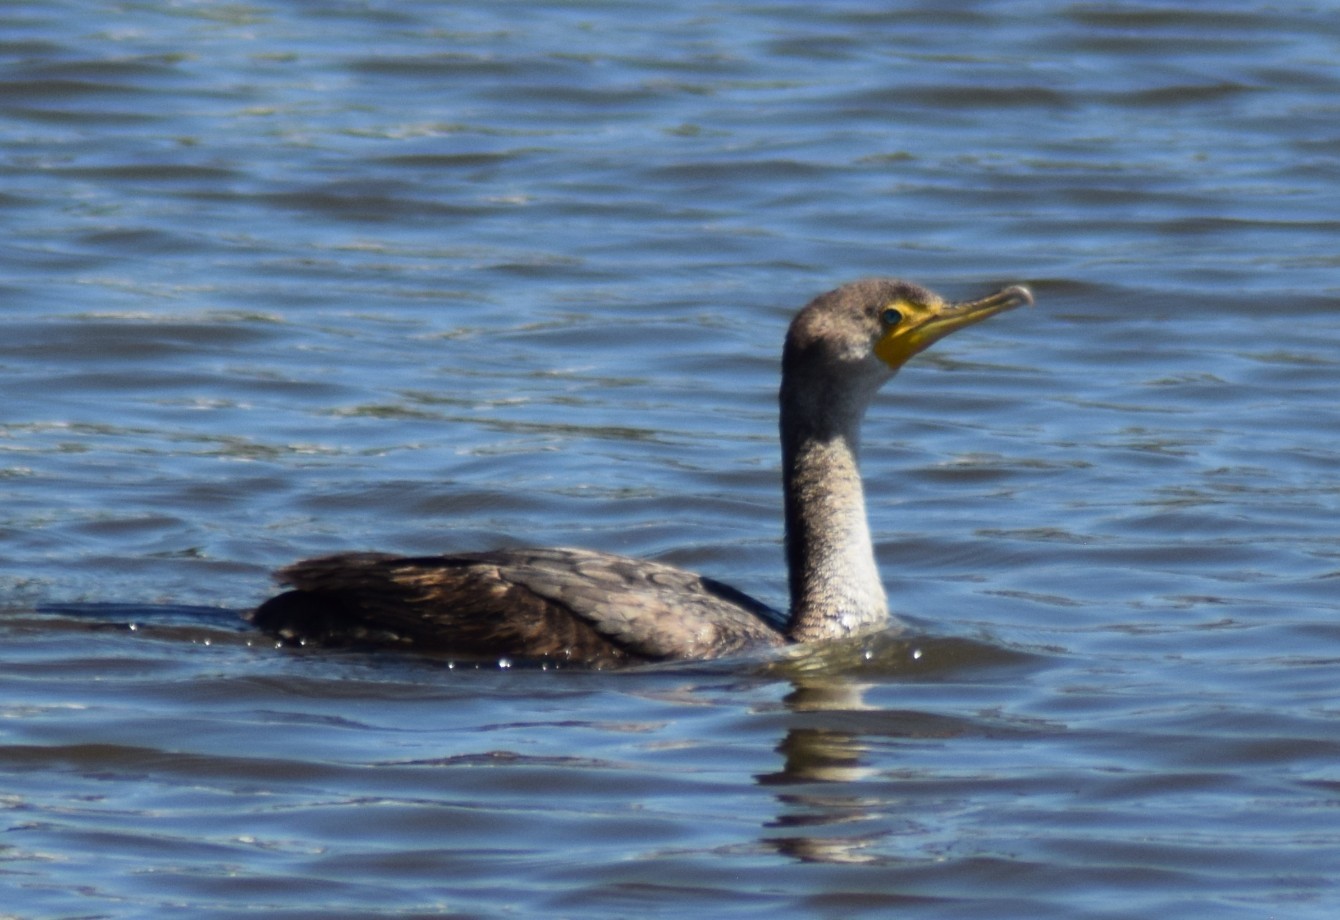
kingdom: Animalia
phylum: Chordata
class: Aves
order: Suliformes
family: Phalacrocoracidae
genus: Phalacrocorax
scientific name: Phalacrocorax auritus
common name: Double-crested cormorant
